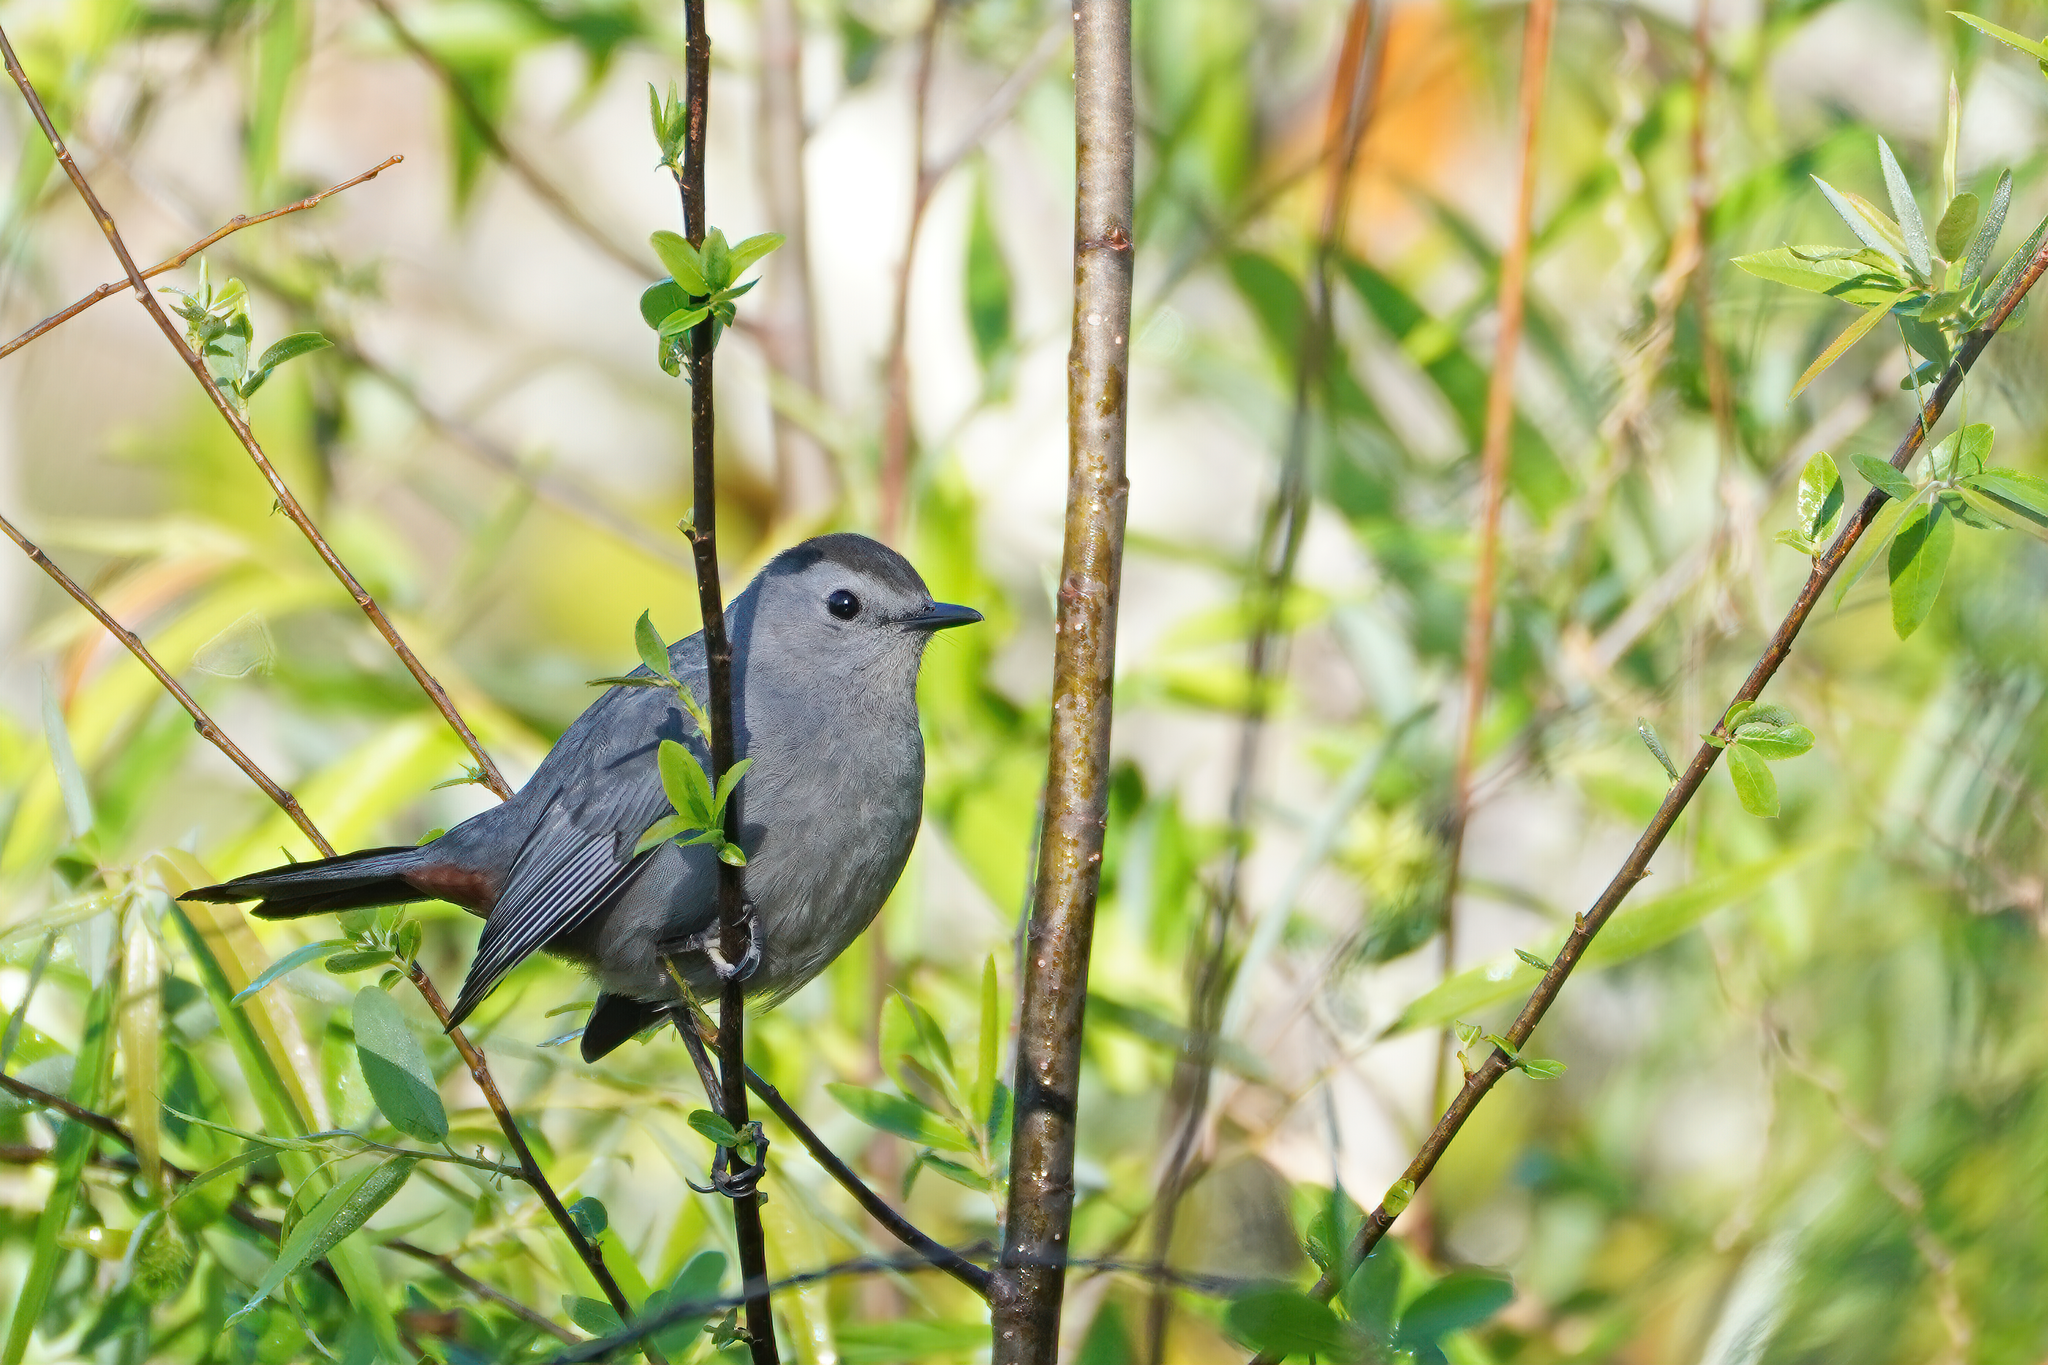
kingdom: Animalia
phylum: Chordata
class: Aves
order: Passeriformes
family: Mimidae
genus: Dumetella
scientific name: Dumetella carolinensis
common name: Gray catbird
